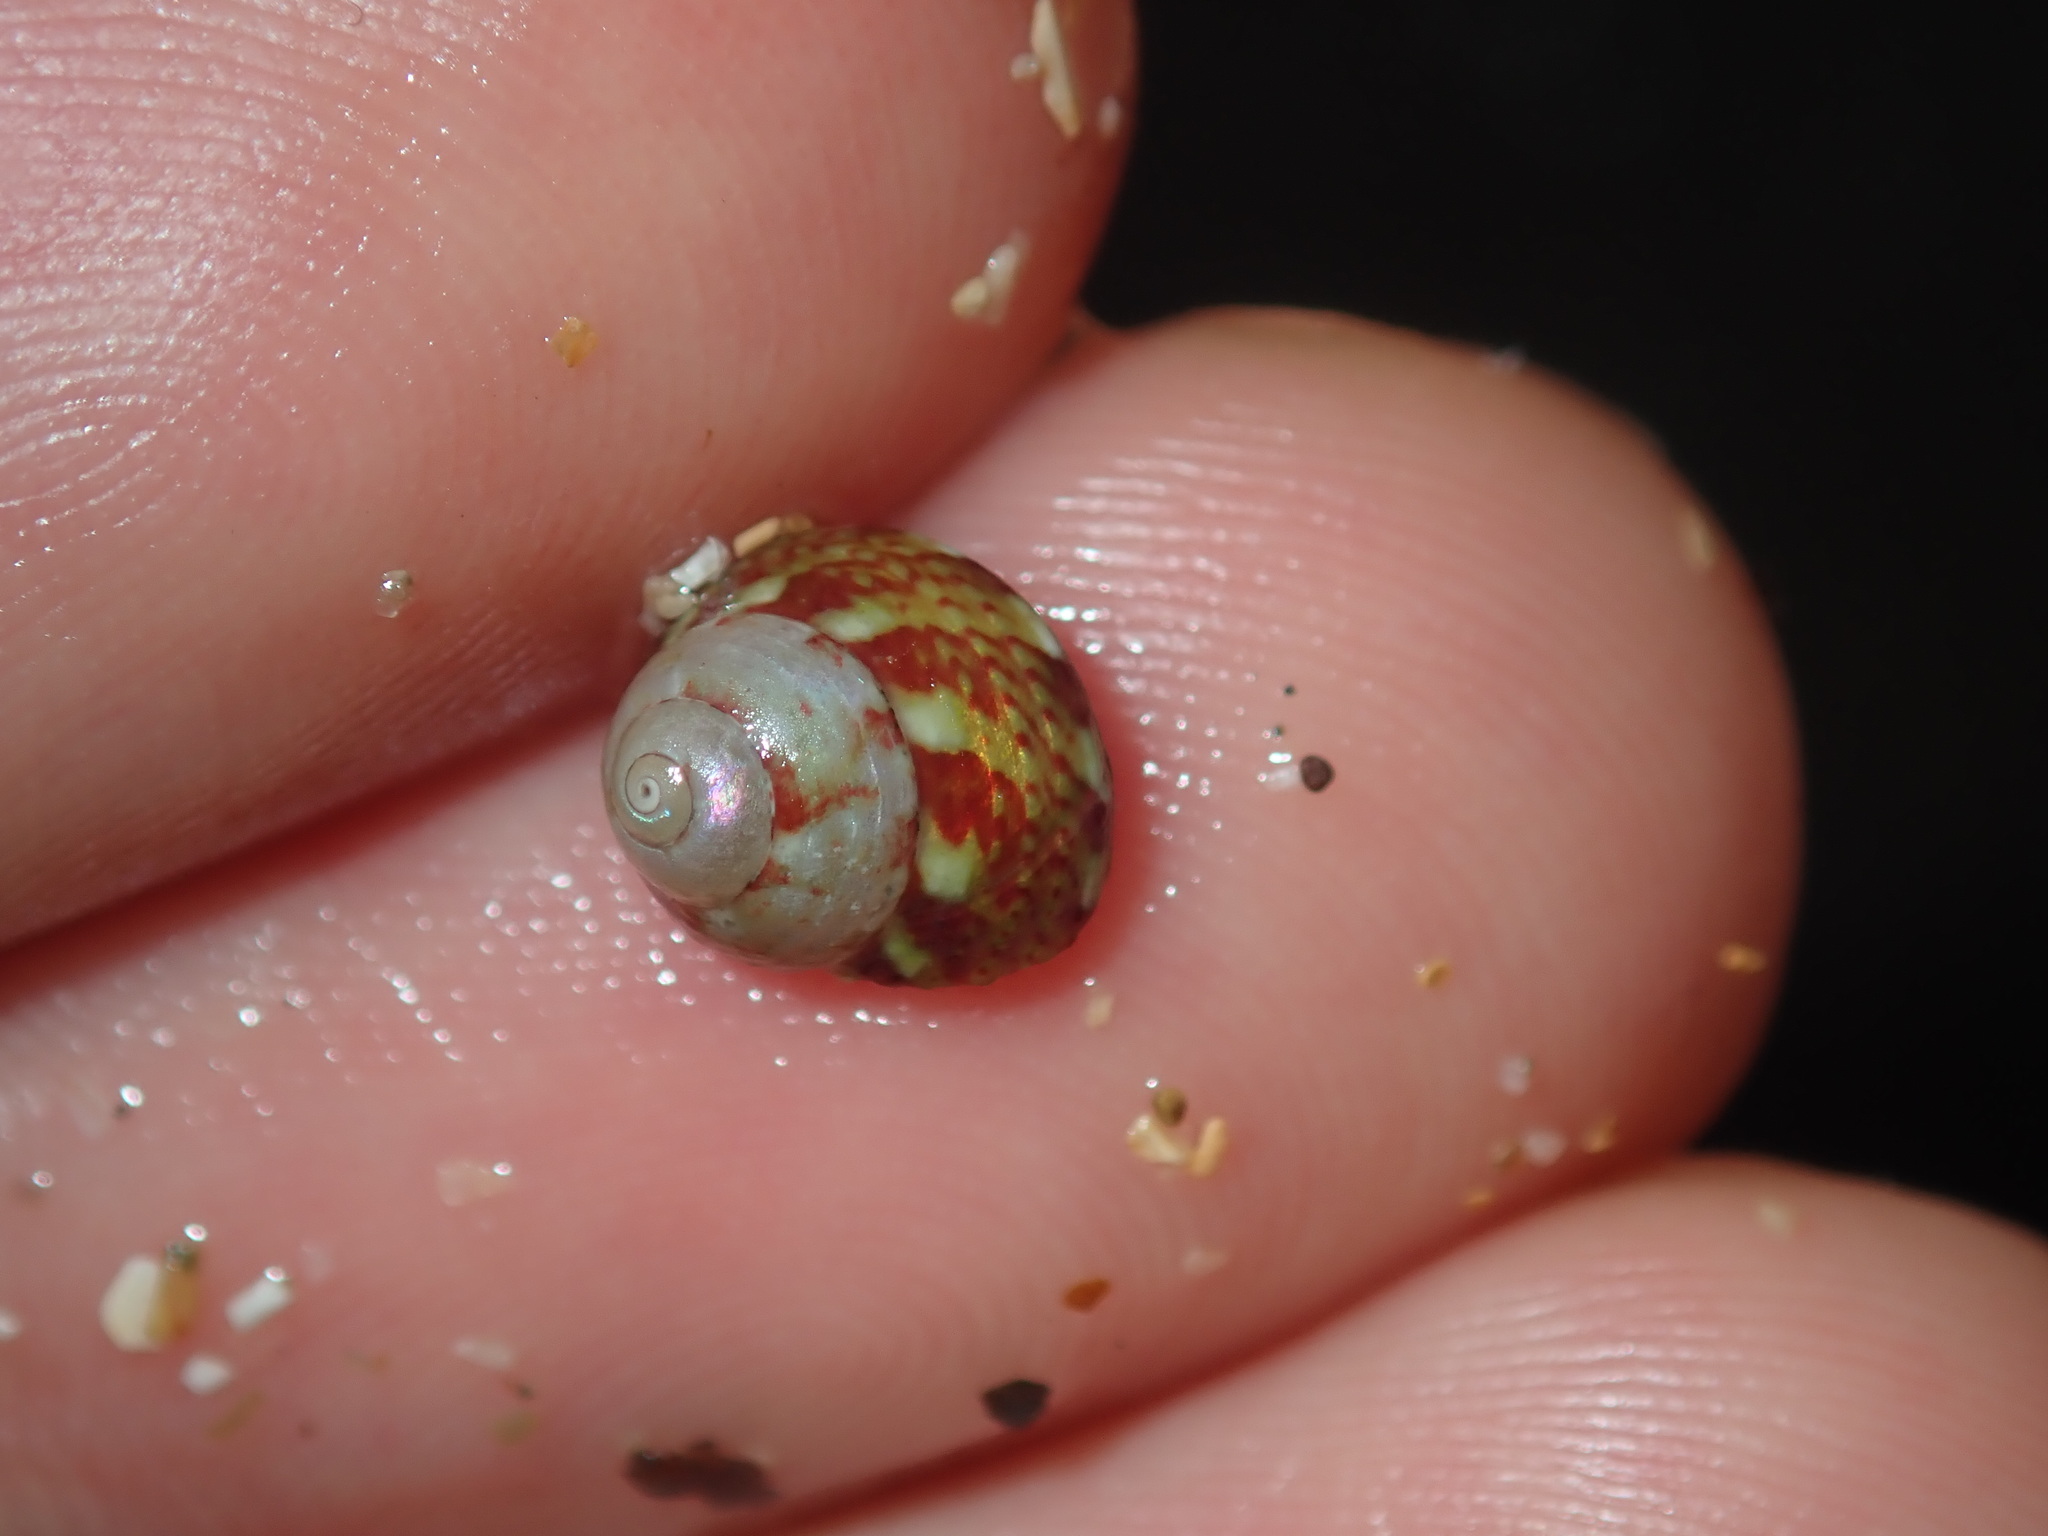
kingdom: Animalia
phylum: Mollusca
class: Gastropoda
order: Trochida
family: Trochidae
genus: Cantharidella
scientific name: Cantharidella picturata
